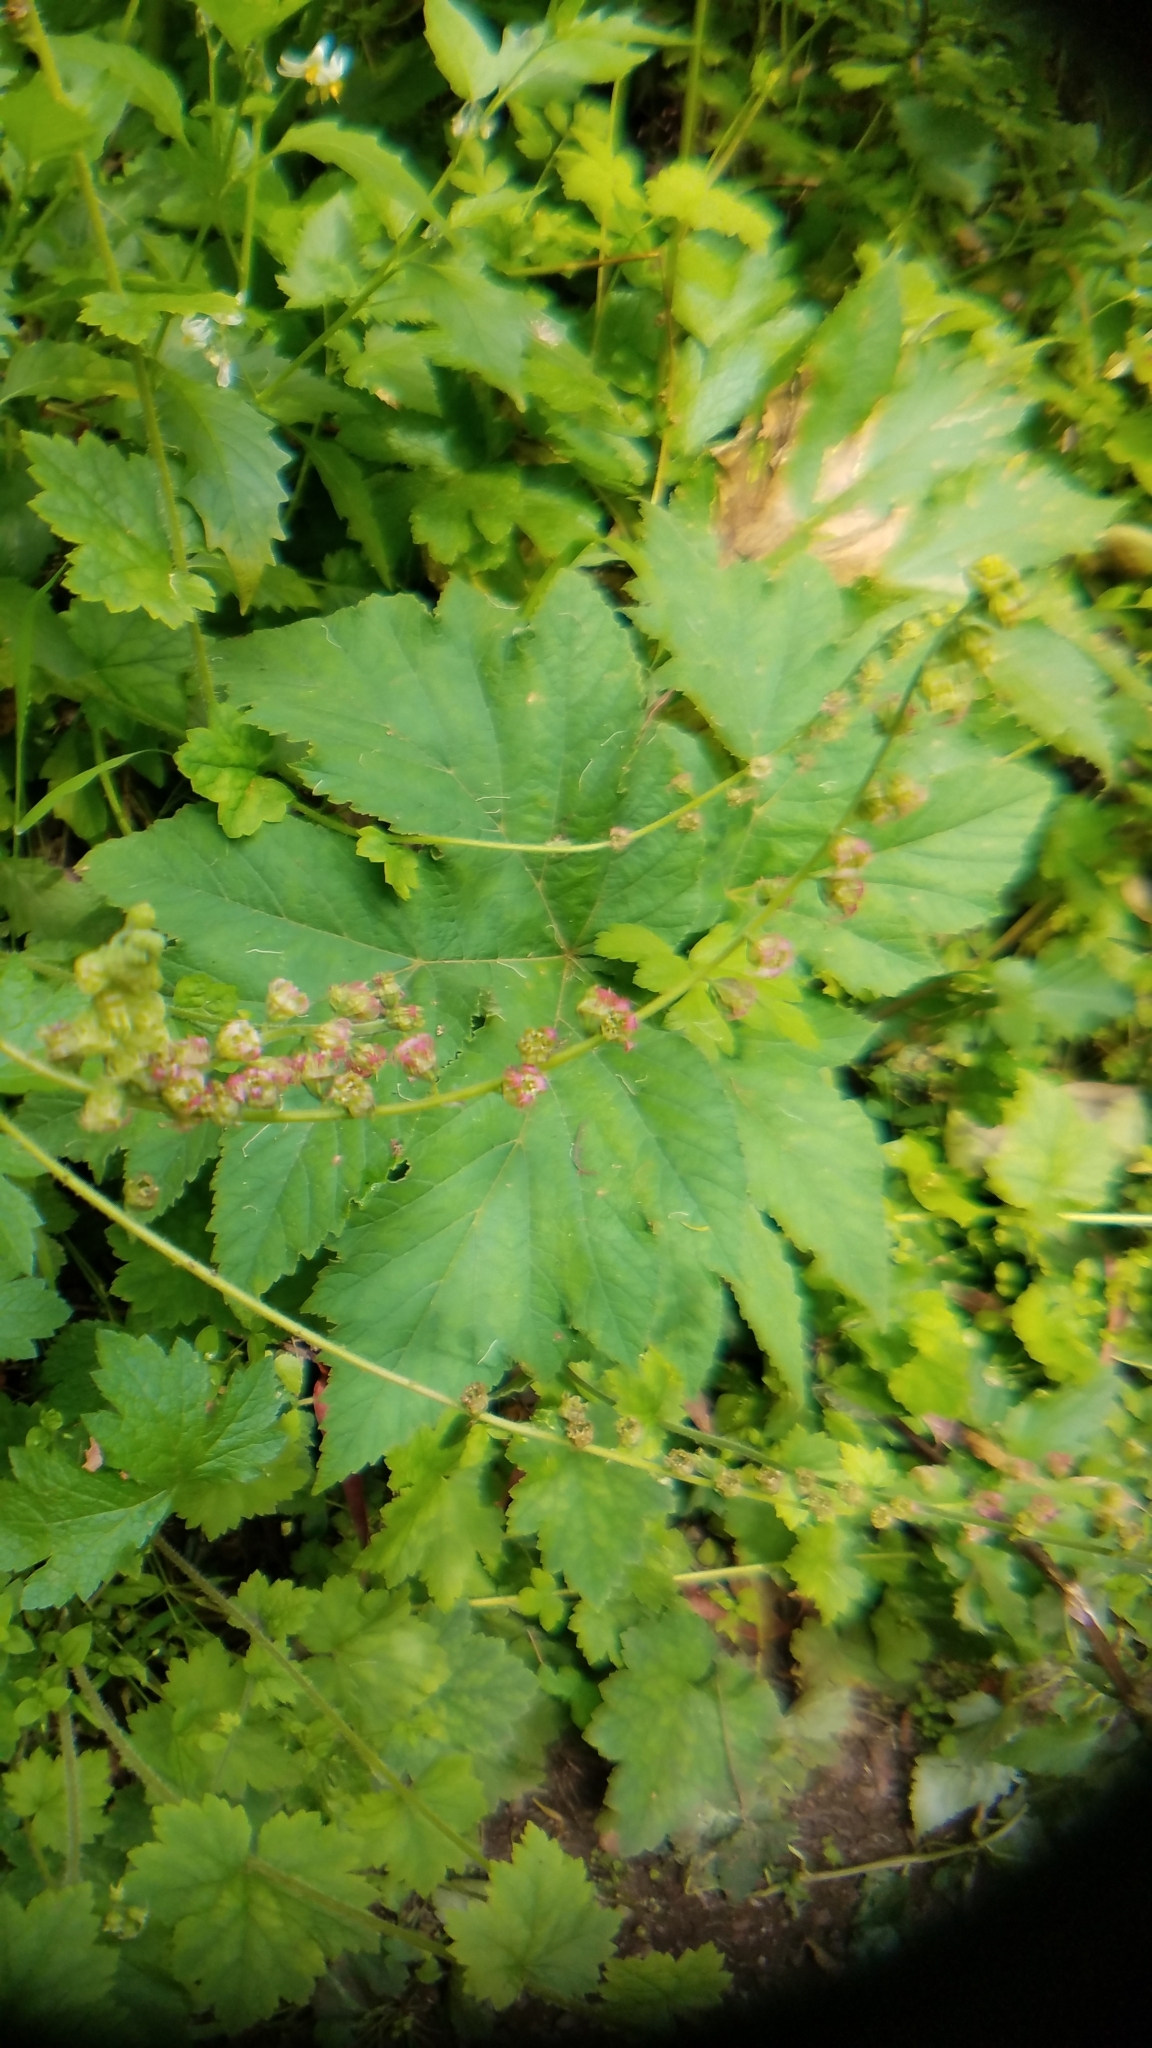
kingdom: Plantae
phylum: Tracheophyta
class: Magnoliopsida
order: Saxifragales
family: Saxifragaceae
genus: Tellima
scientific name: Tellima grandiflora
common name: Fringecups
